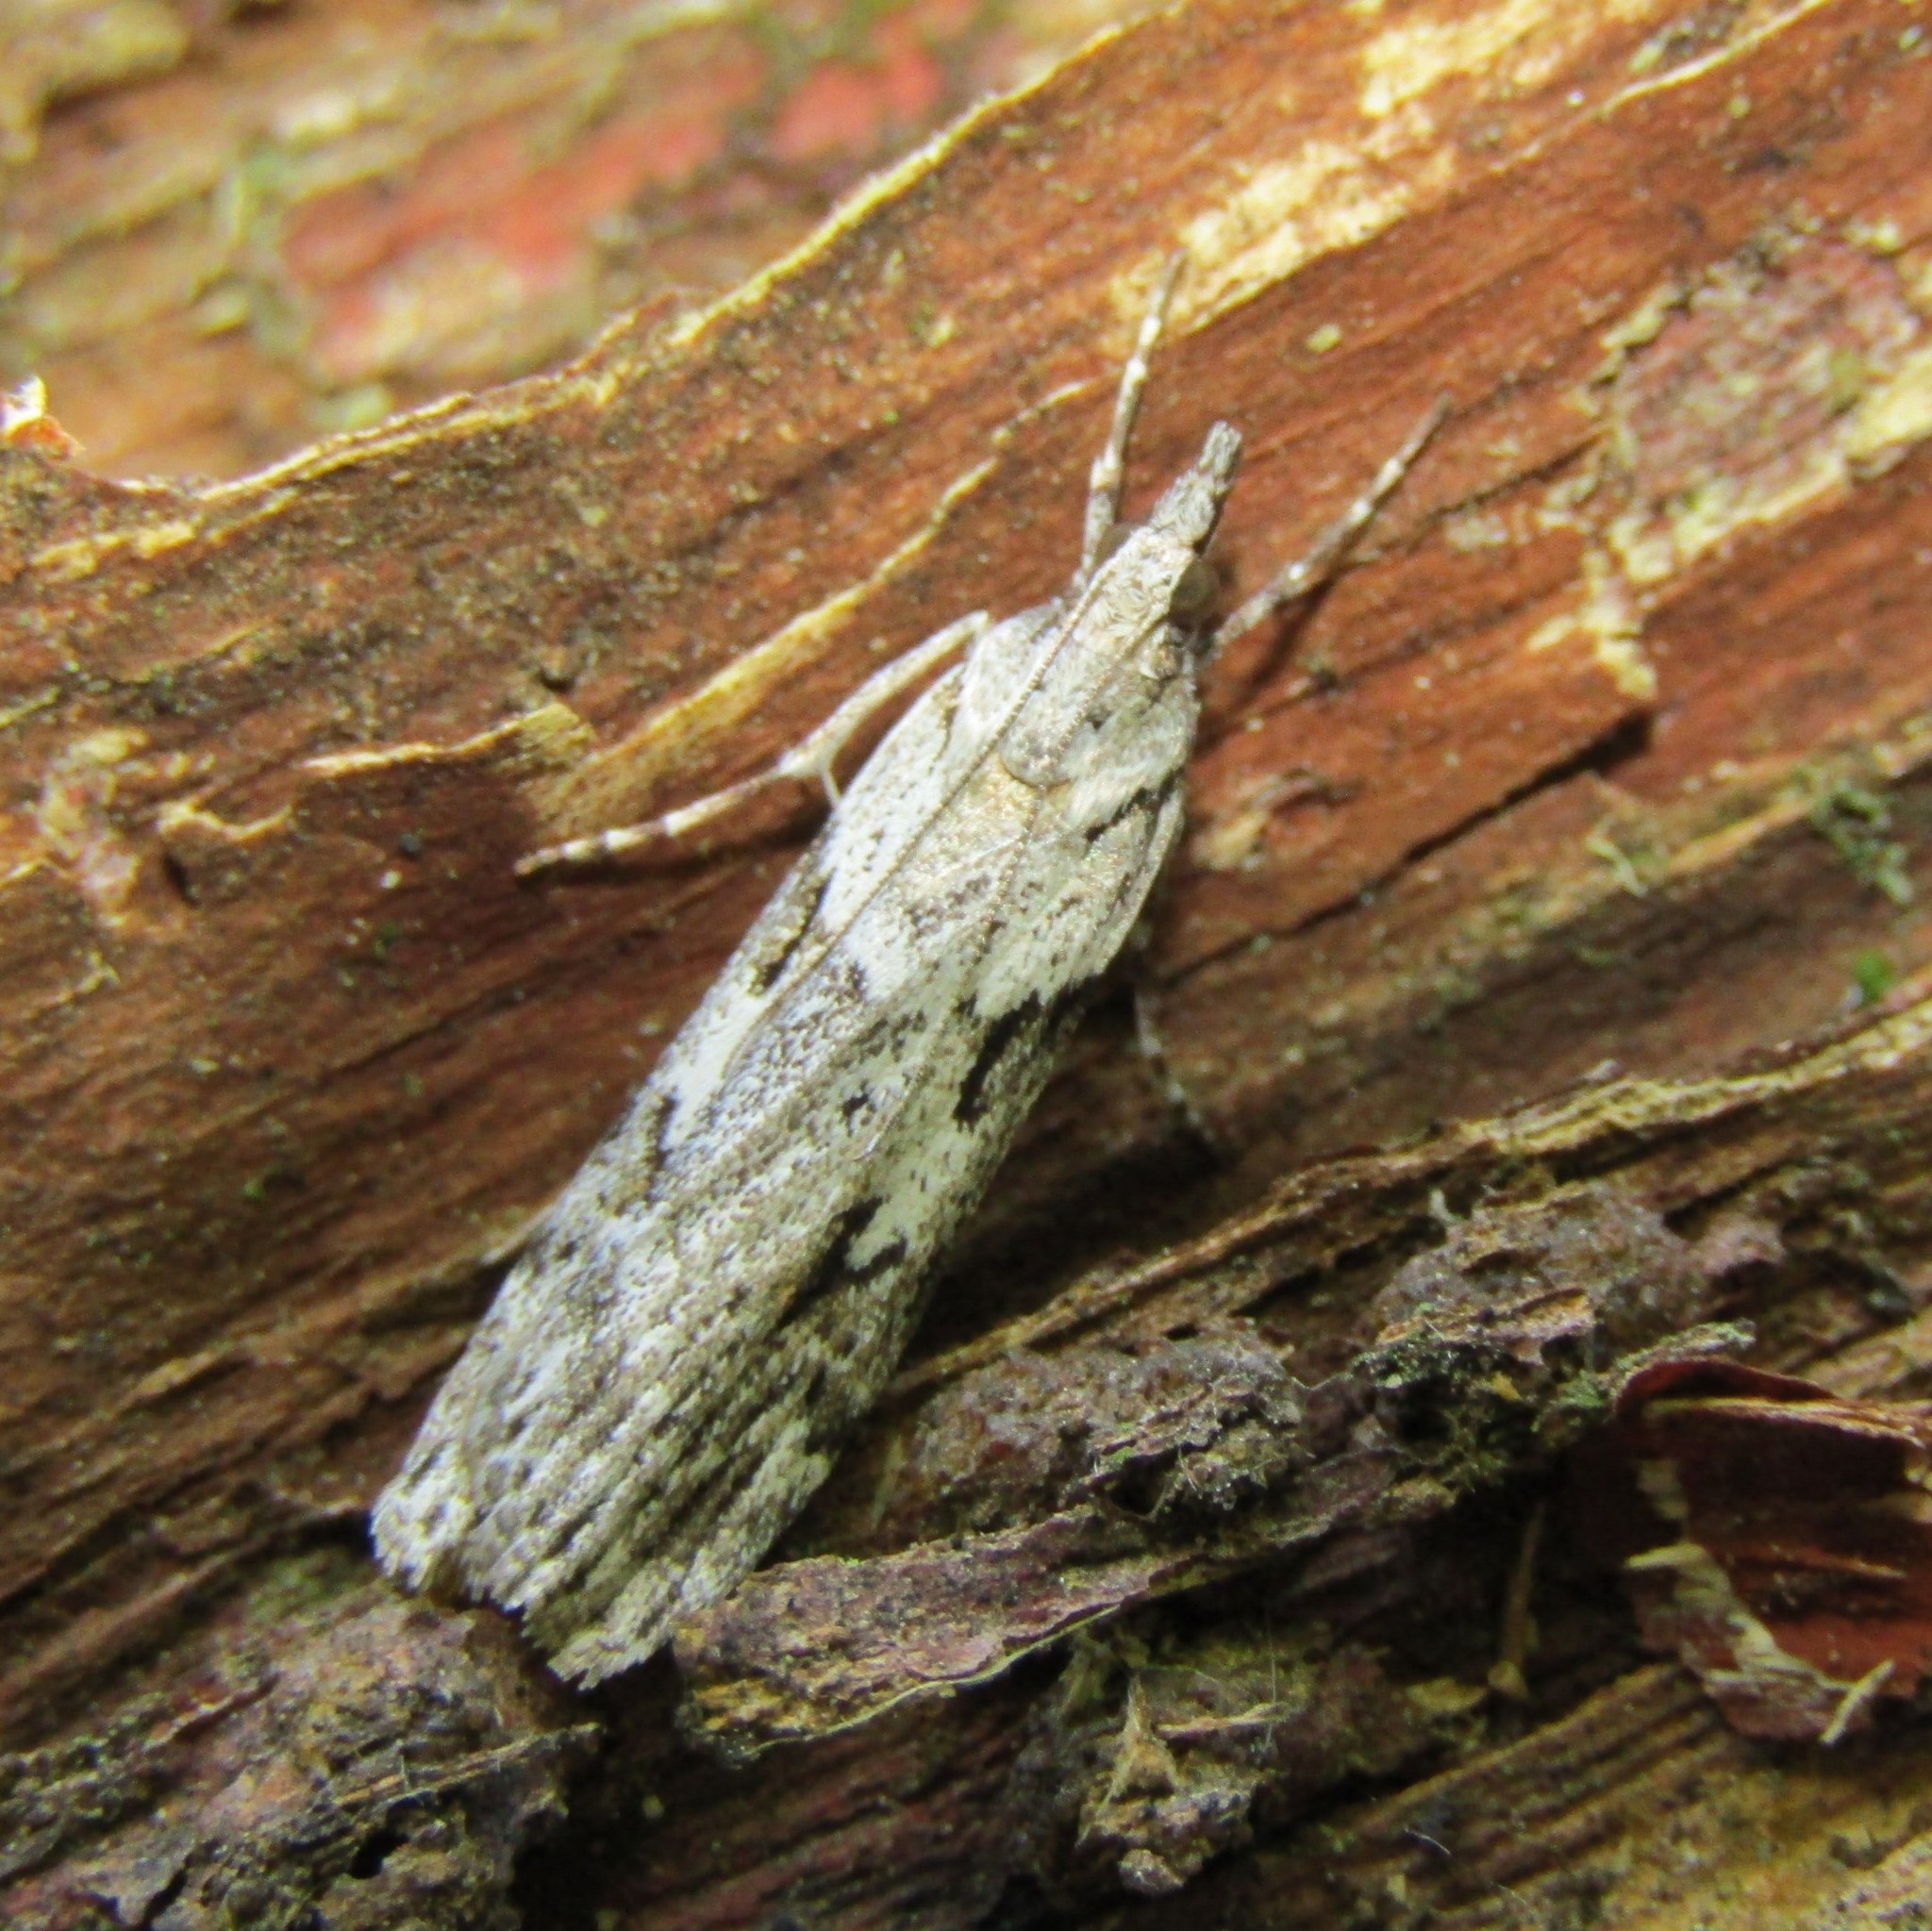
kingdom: Animalia
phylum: Arthropoda
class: Insecta
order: Lepidoptera
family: Crambidae
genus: Scoparia
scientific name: Scoparia halopis
